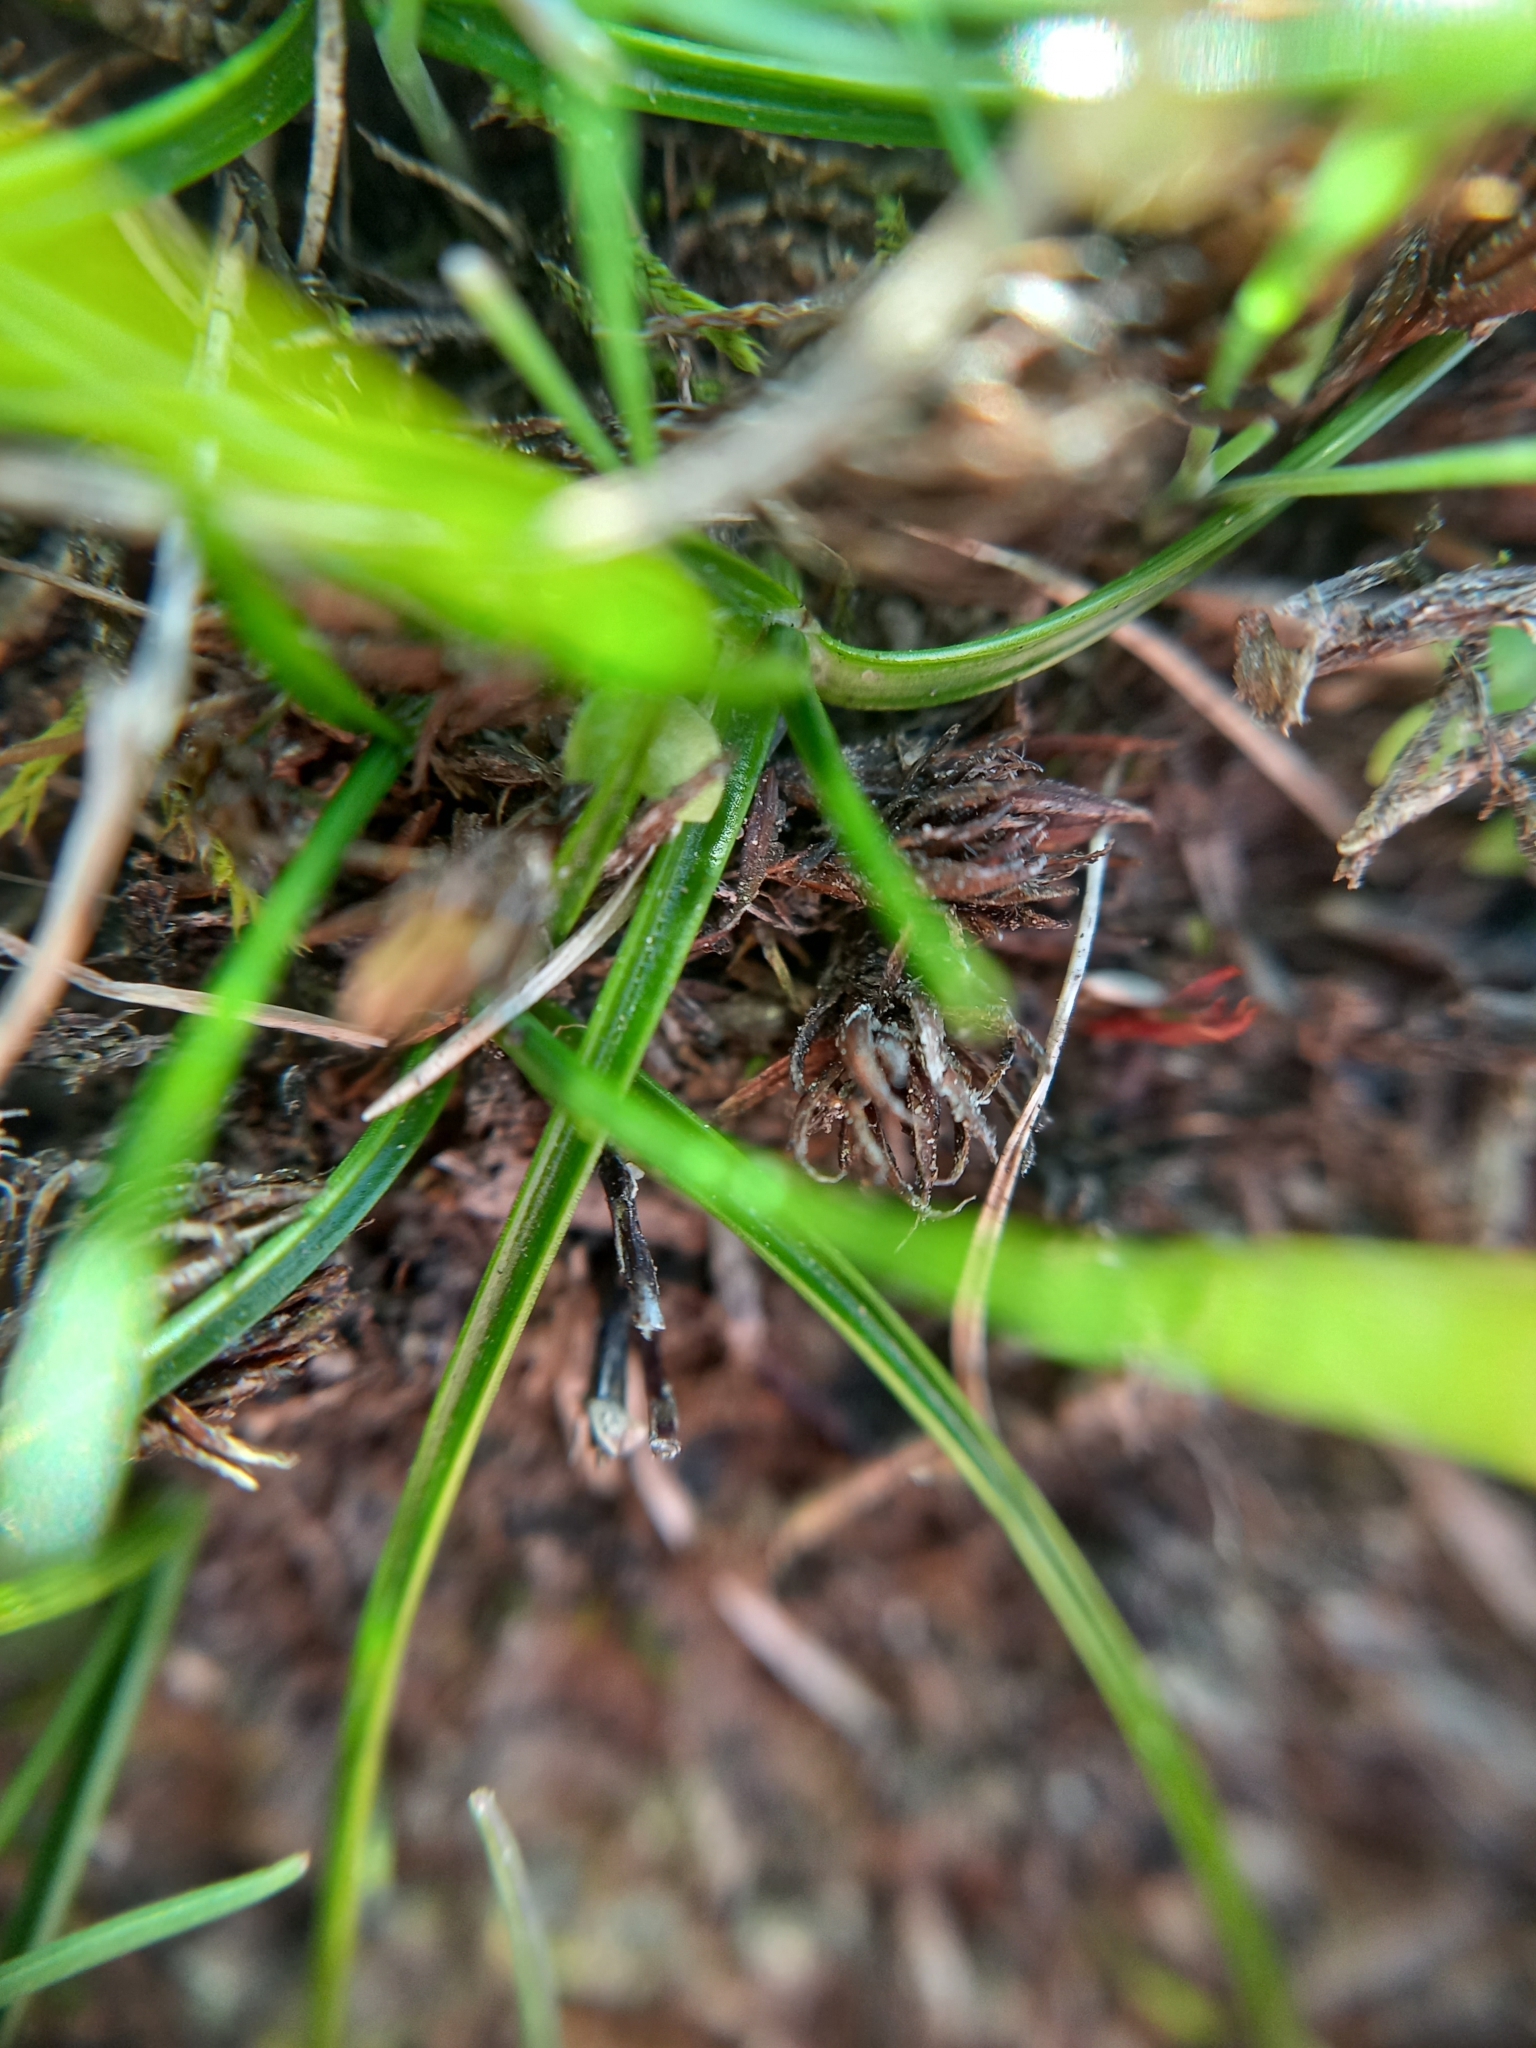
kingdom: Plantae
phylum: Tracheophyta
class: Liliopsida
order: Poales
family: Poaceae
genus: Zoysia
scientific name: Zoysia minima
